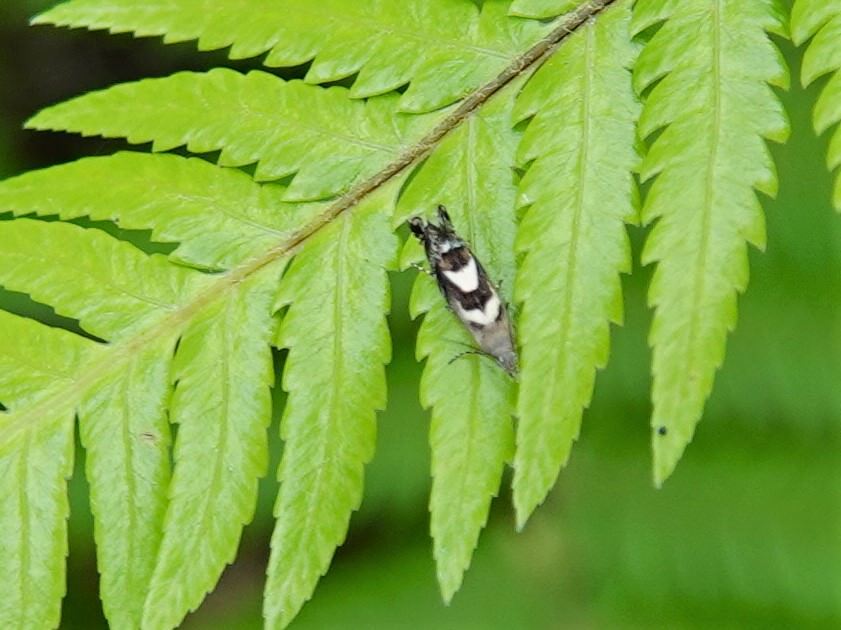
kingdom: Animalia
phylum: Arthropoda
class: Insecta
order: Lepidoptera
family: Glyphipterigidae
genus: Glyphipterix
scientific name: Glyphipterix asteronota
